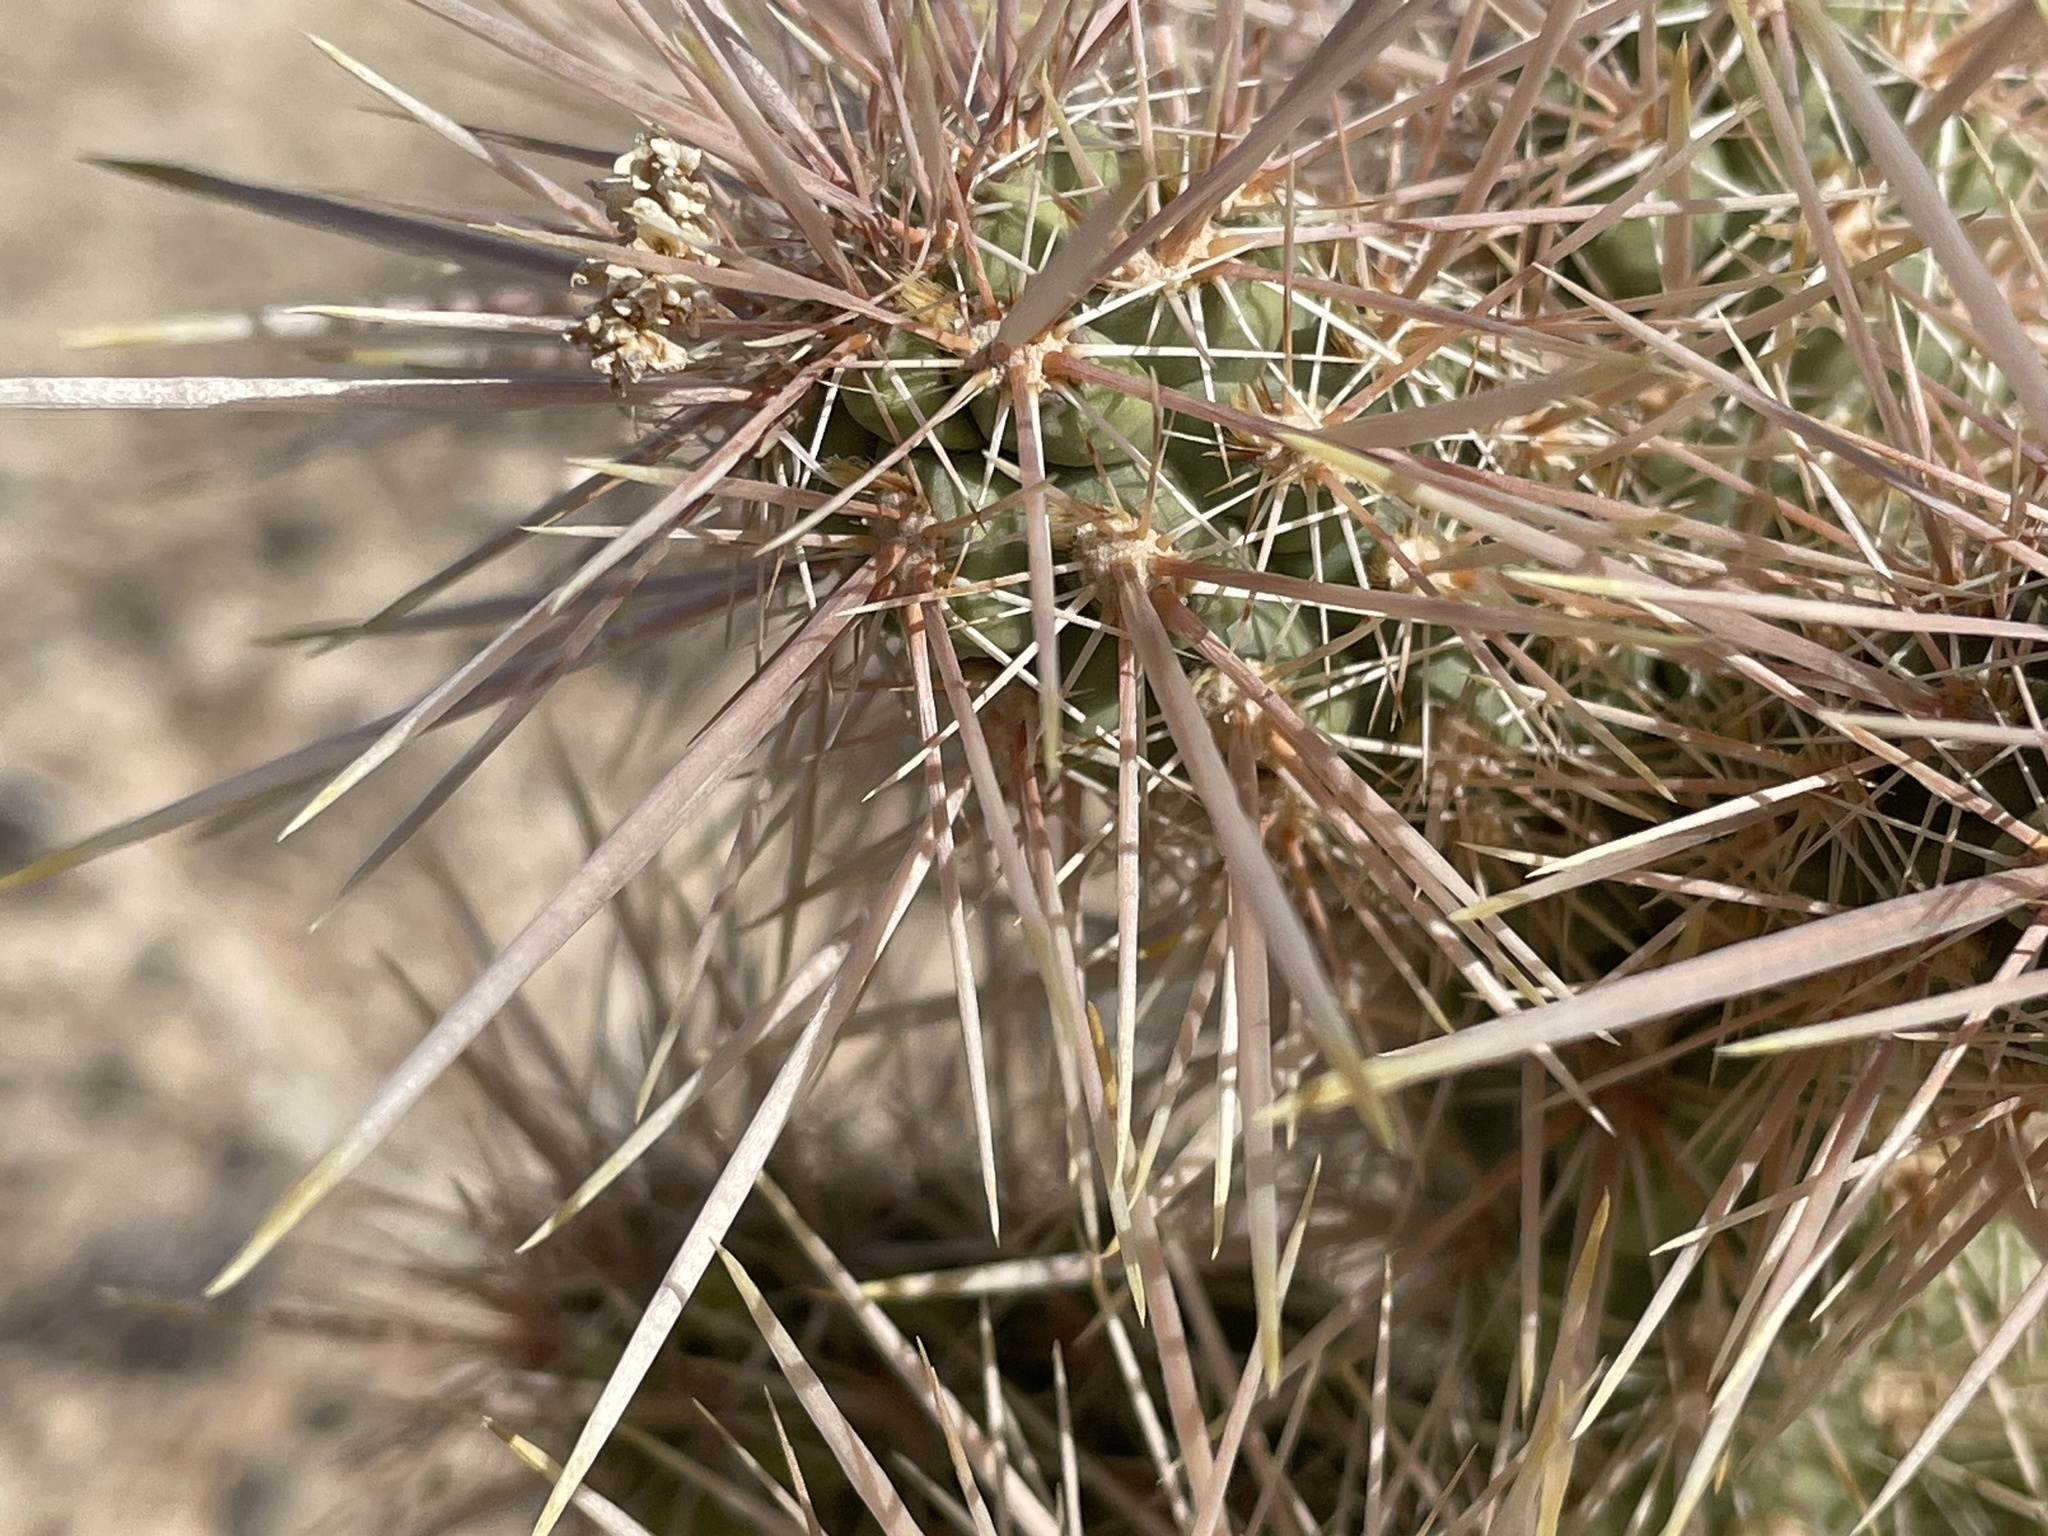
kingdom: Plantae
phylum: Tracheophyta
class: Magnoliopsida
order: Caryophyllales
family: Cactaceae
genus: Cylindropuntia
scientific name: Cylindropuntia echinocarpa
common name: Ground cholla
